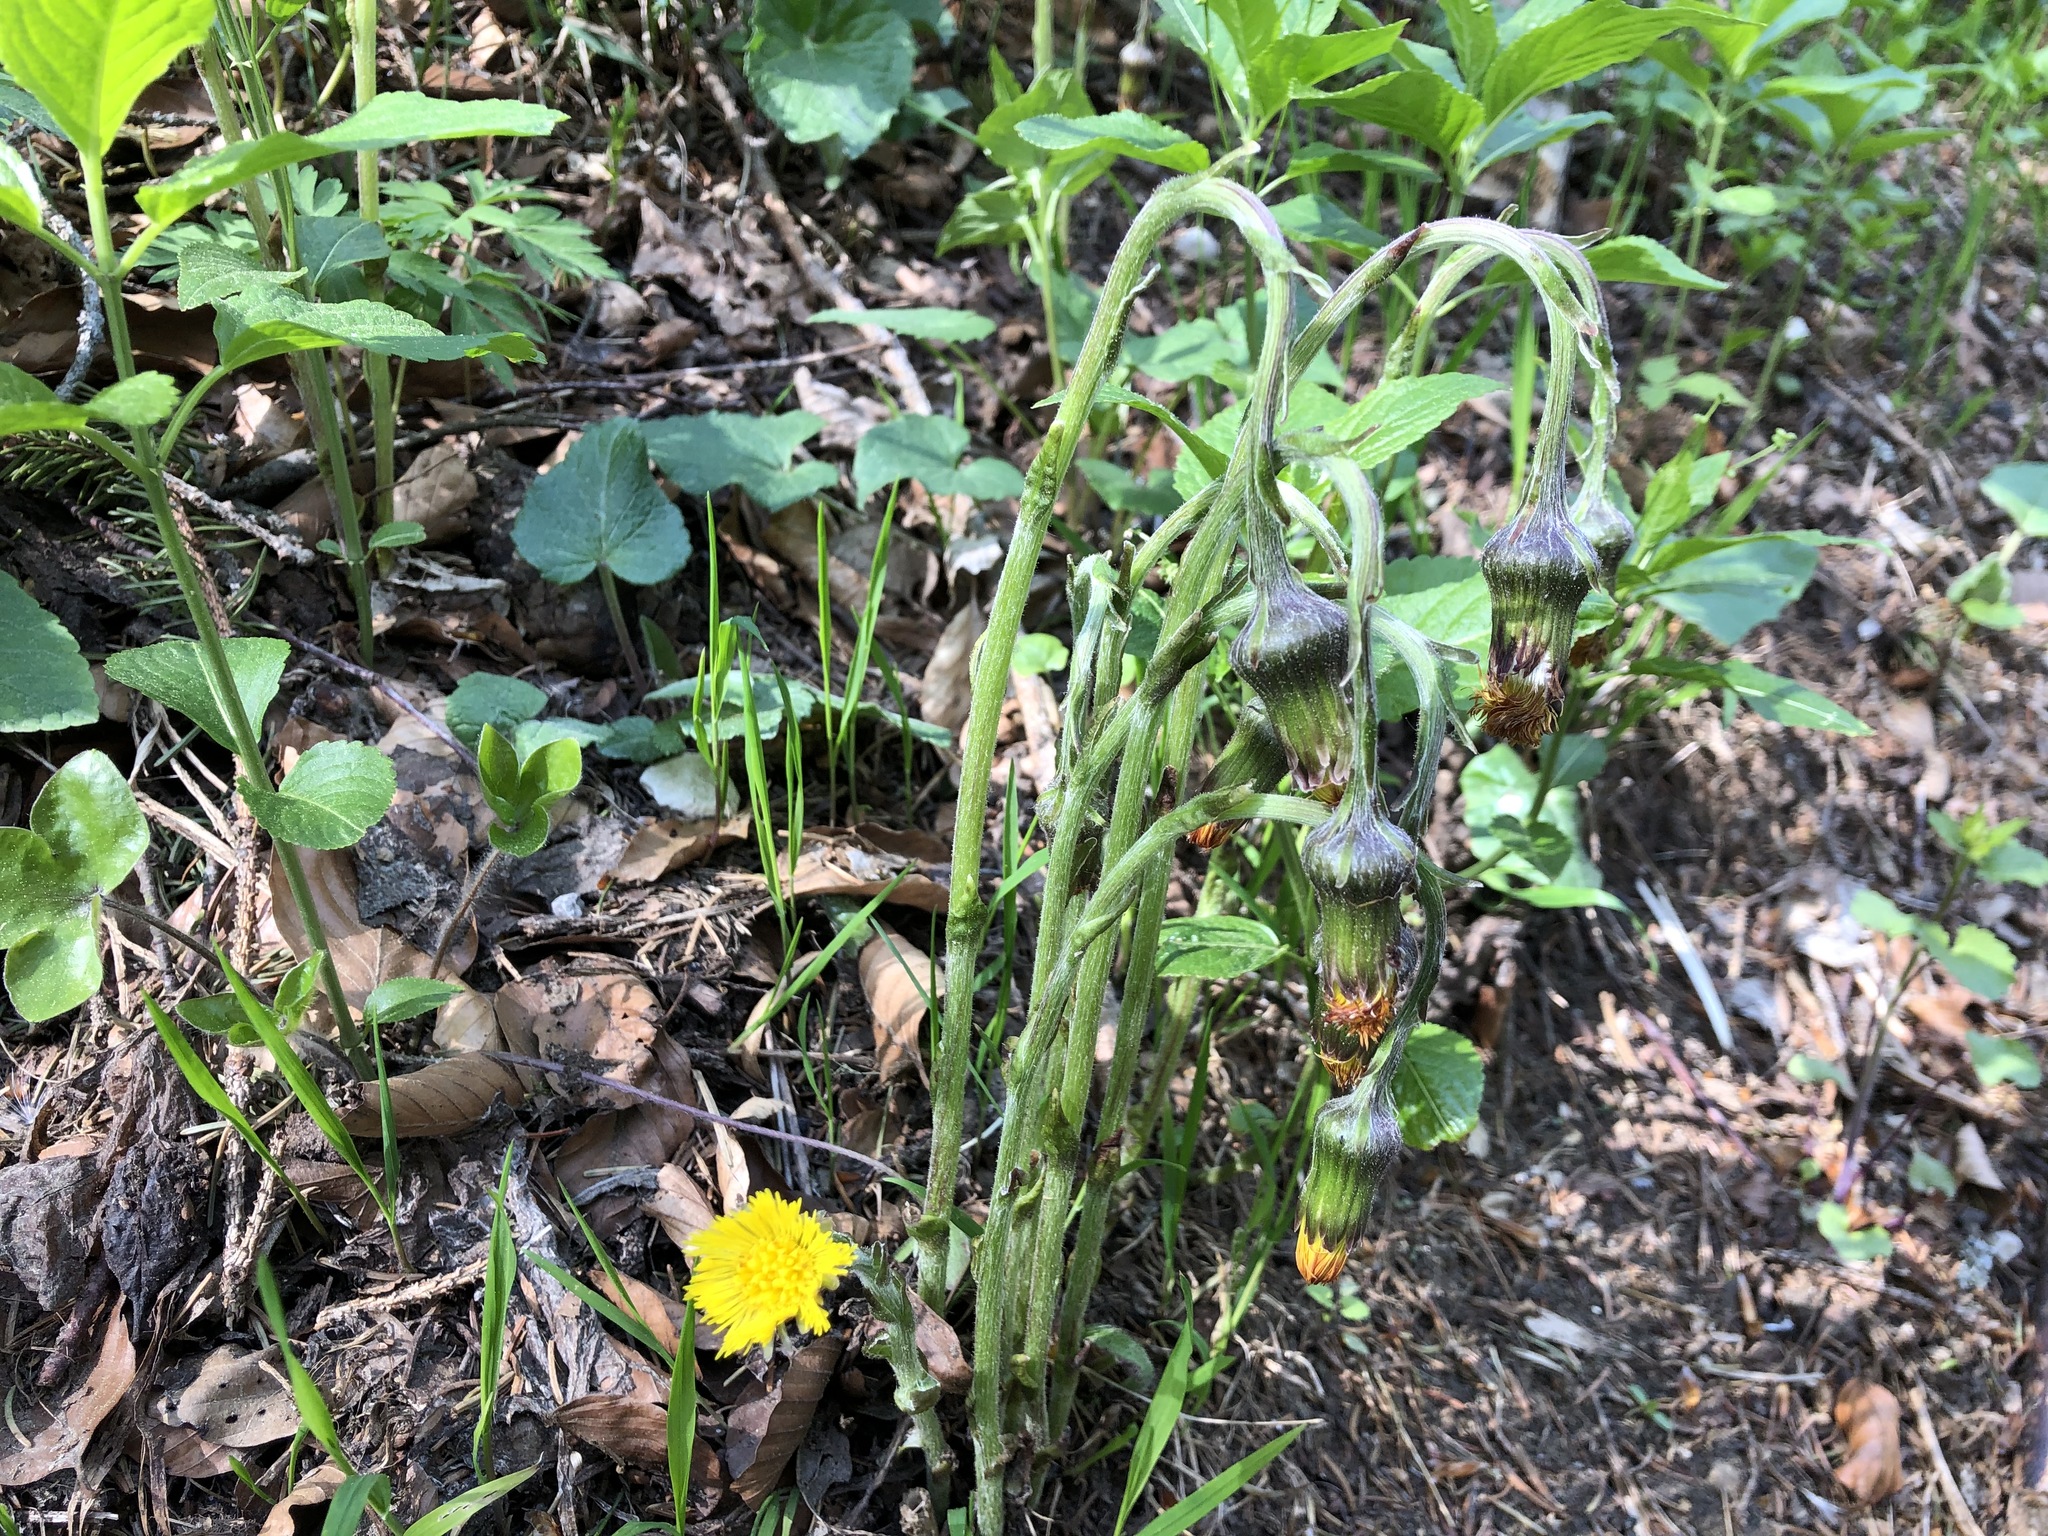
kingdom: Plantae
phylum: Tracheophyta
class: Magnoliopsida
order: Asterales
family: Asteraceae
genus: Tussilago
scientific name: Tussilago farfara
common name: Coltsfoot
